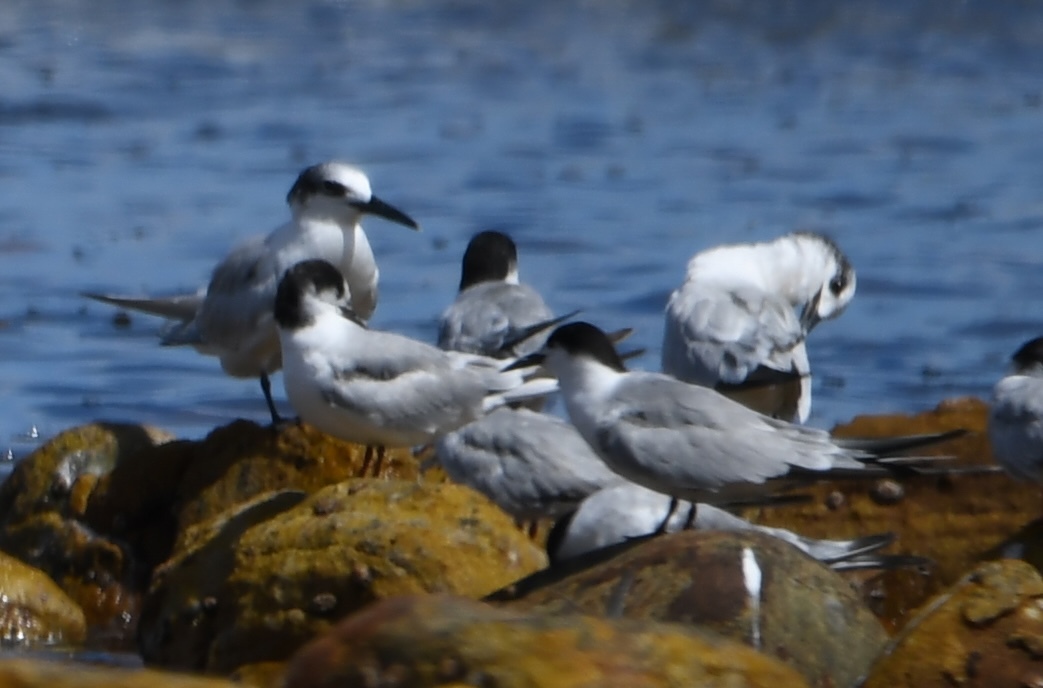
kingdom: Animalia
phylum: Chordata
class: Aves
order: Charadriiformes
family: Laridae
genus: Thalasseus
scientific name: Thalasseus sandvicensis
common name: Sandwich tern
